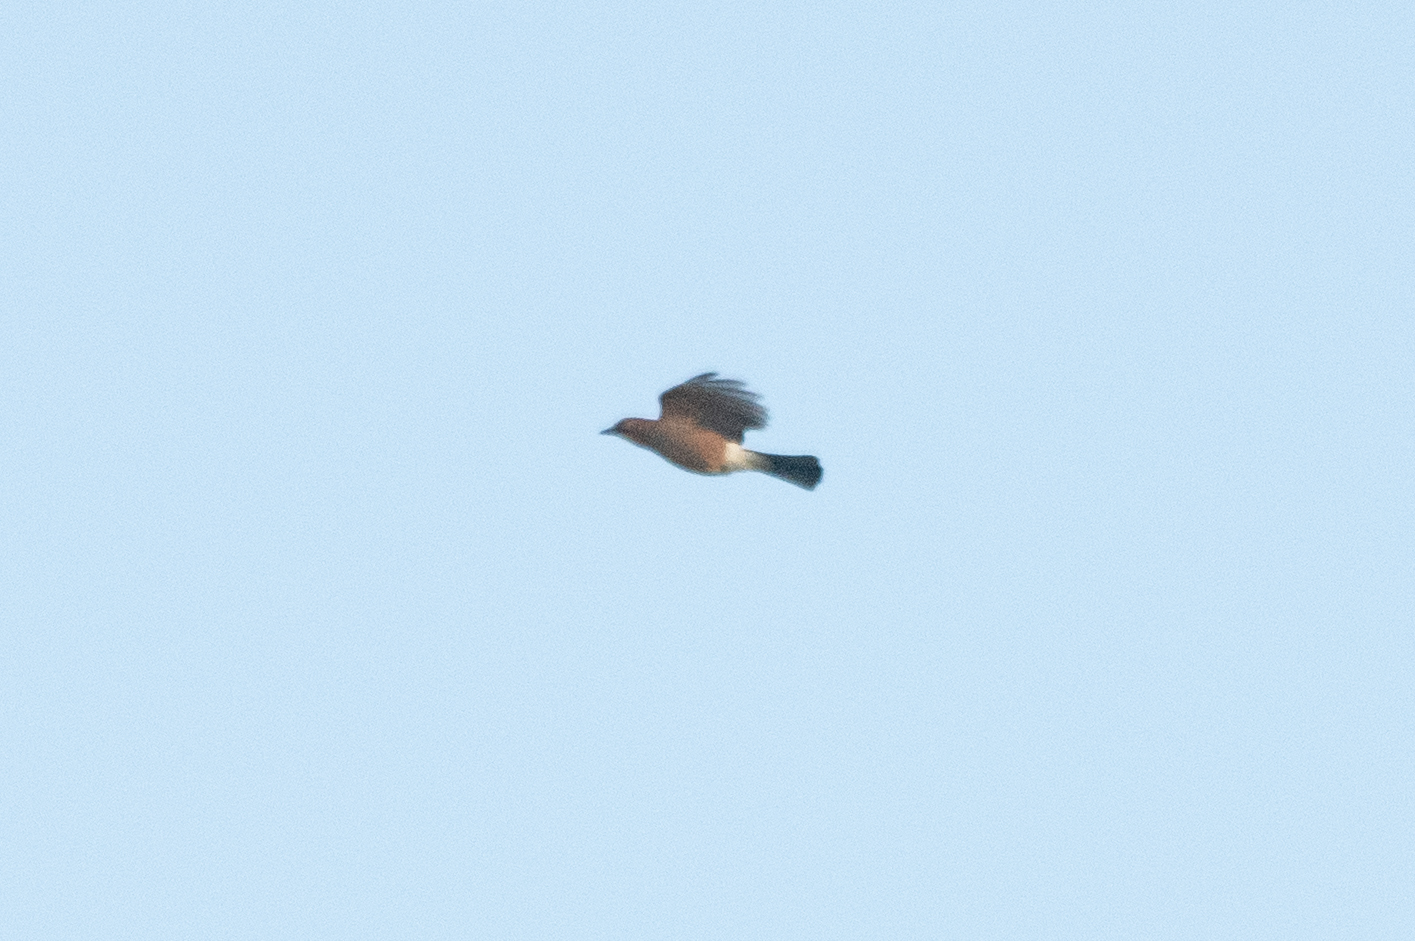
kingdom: Animalia
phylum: Chordata
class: Aves
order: Passeriformes
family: Corvidae
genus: Garrulus
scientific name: Garrulus glandarius
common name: Eurasian jay
